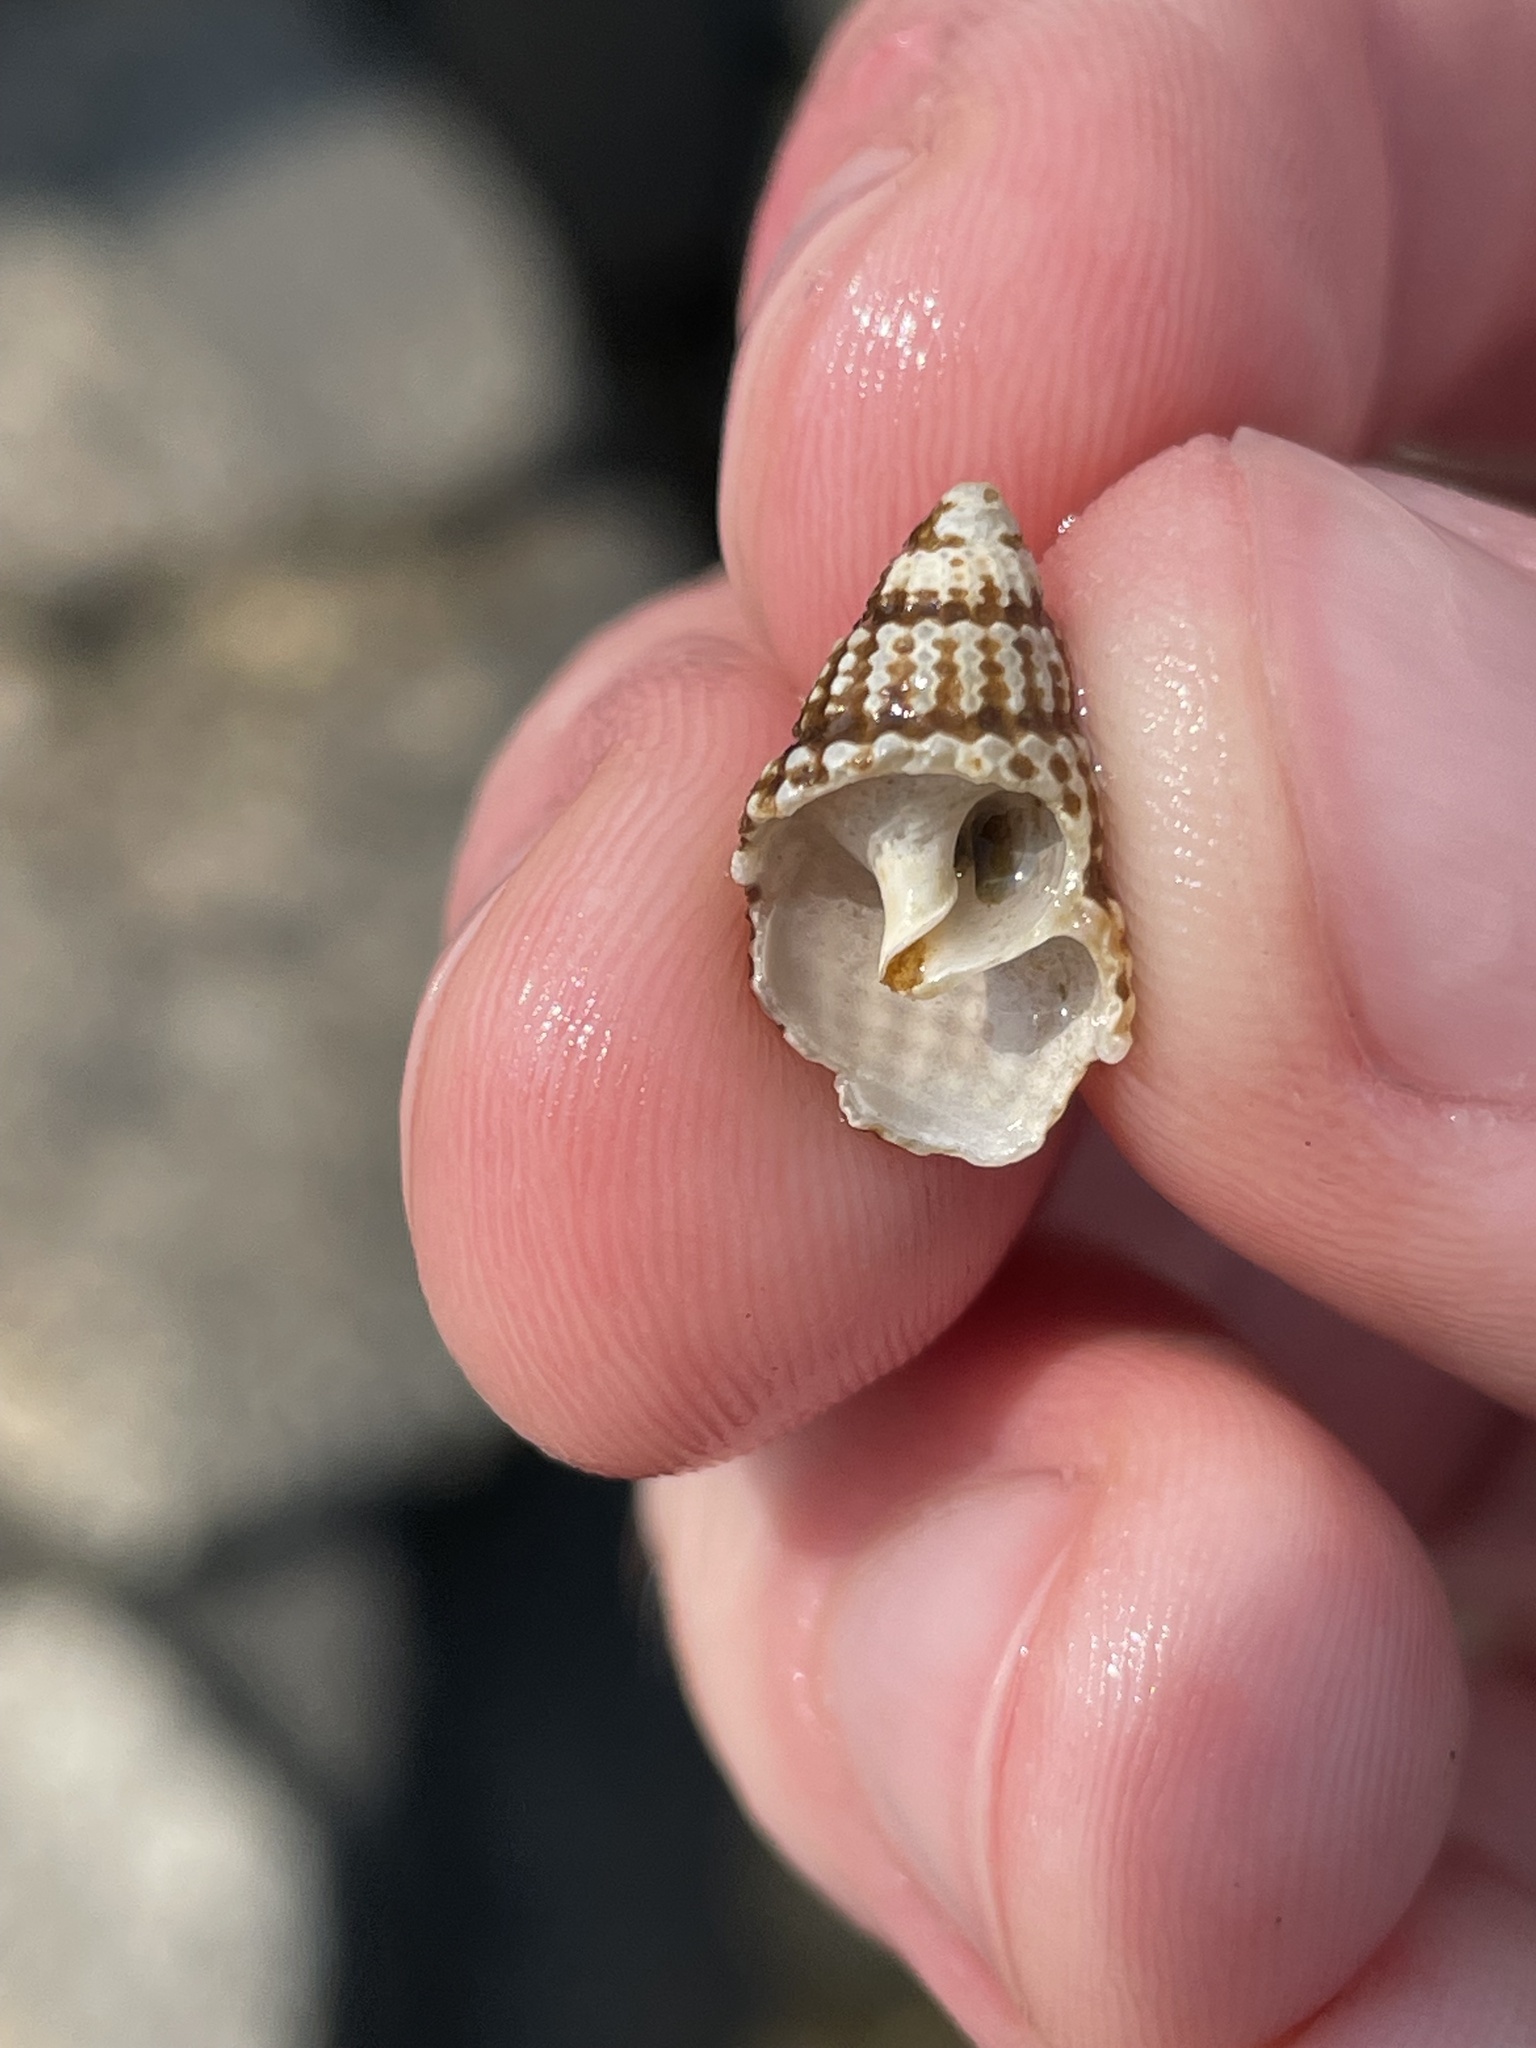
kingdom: Animalia
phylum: Mollusca
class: Gastropoda
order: Neogastropoda
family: Nassariidae
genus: Ilyanassa
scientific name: Ilyanassa trivittata
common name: Three-line mudsnail
